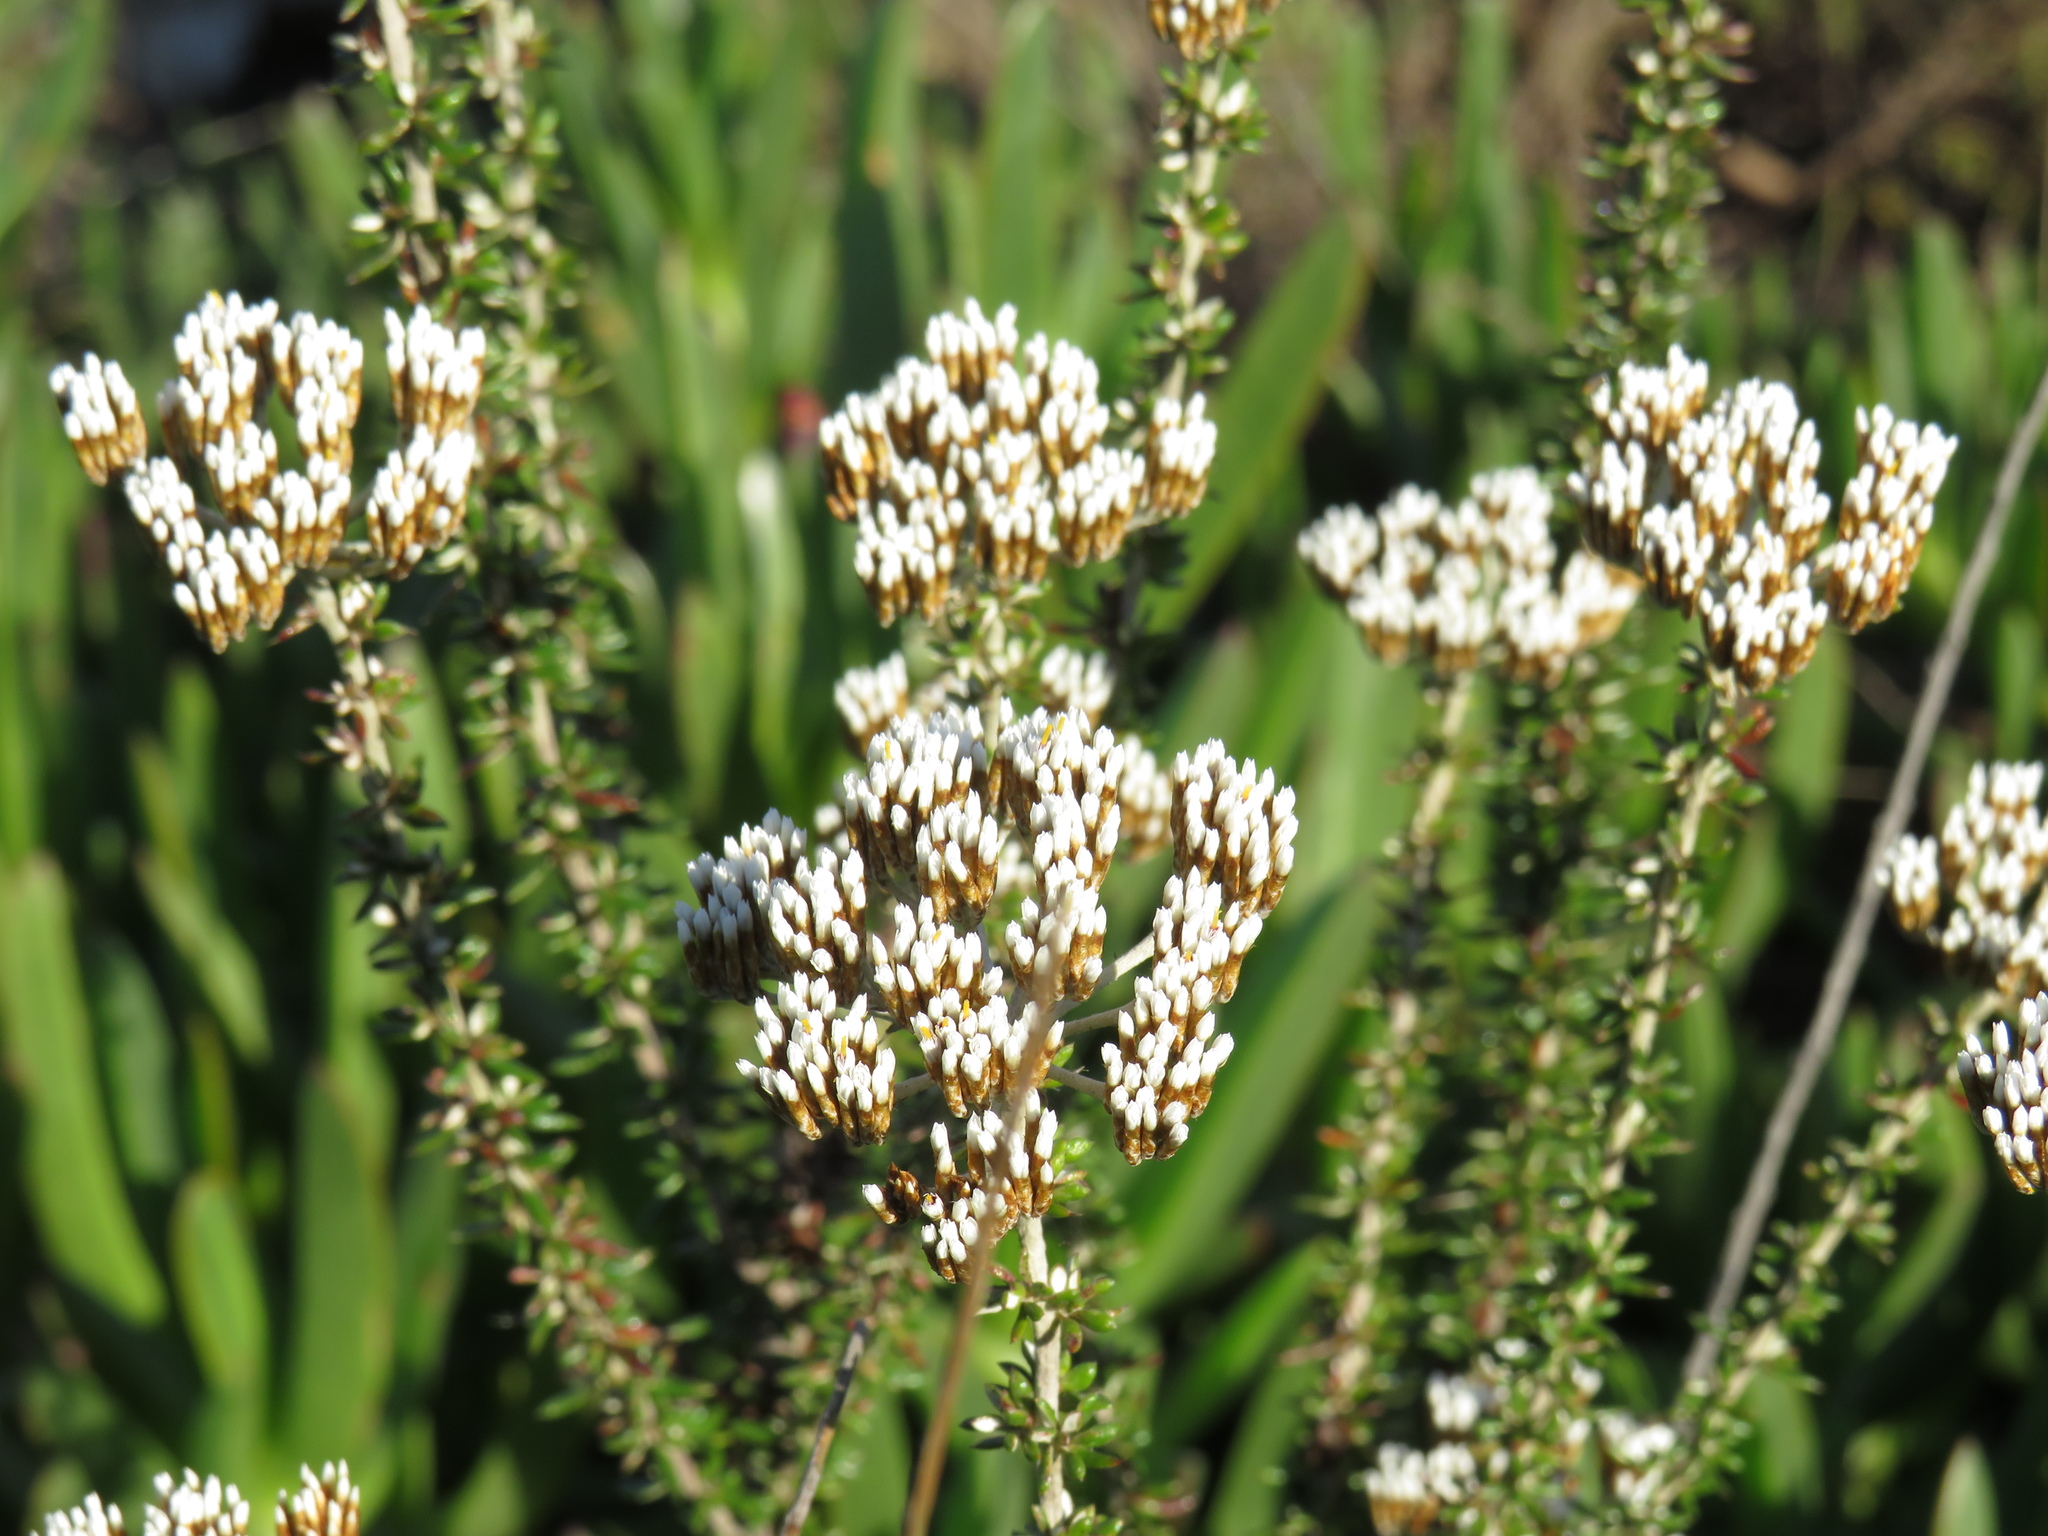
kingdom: Plantae
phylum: Tracheophyta
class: Magnoliopsida
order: Asterales
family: Asteraceae
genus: Metalasia
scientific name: Metalasia densa
